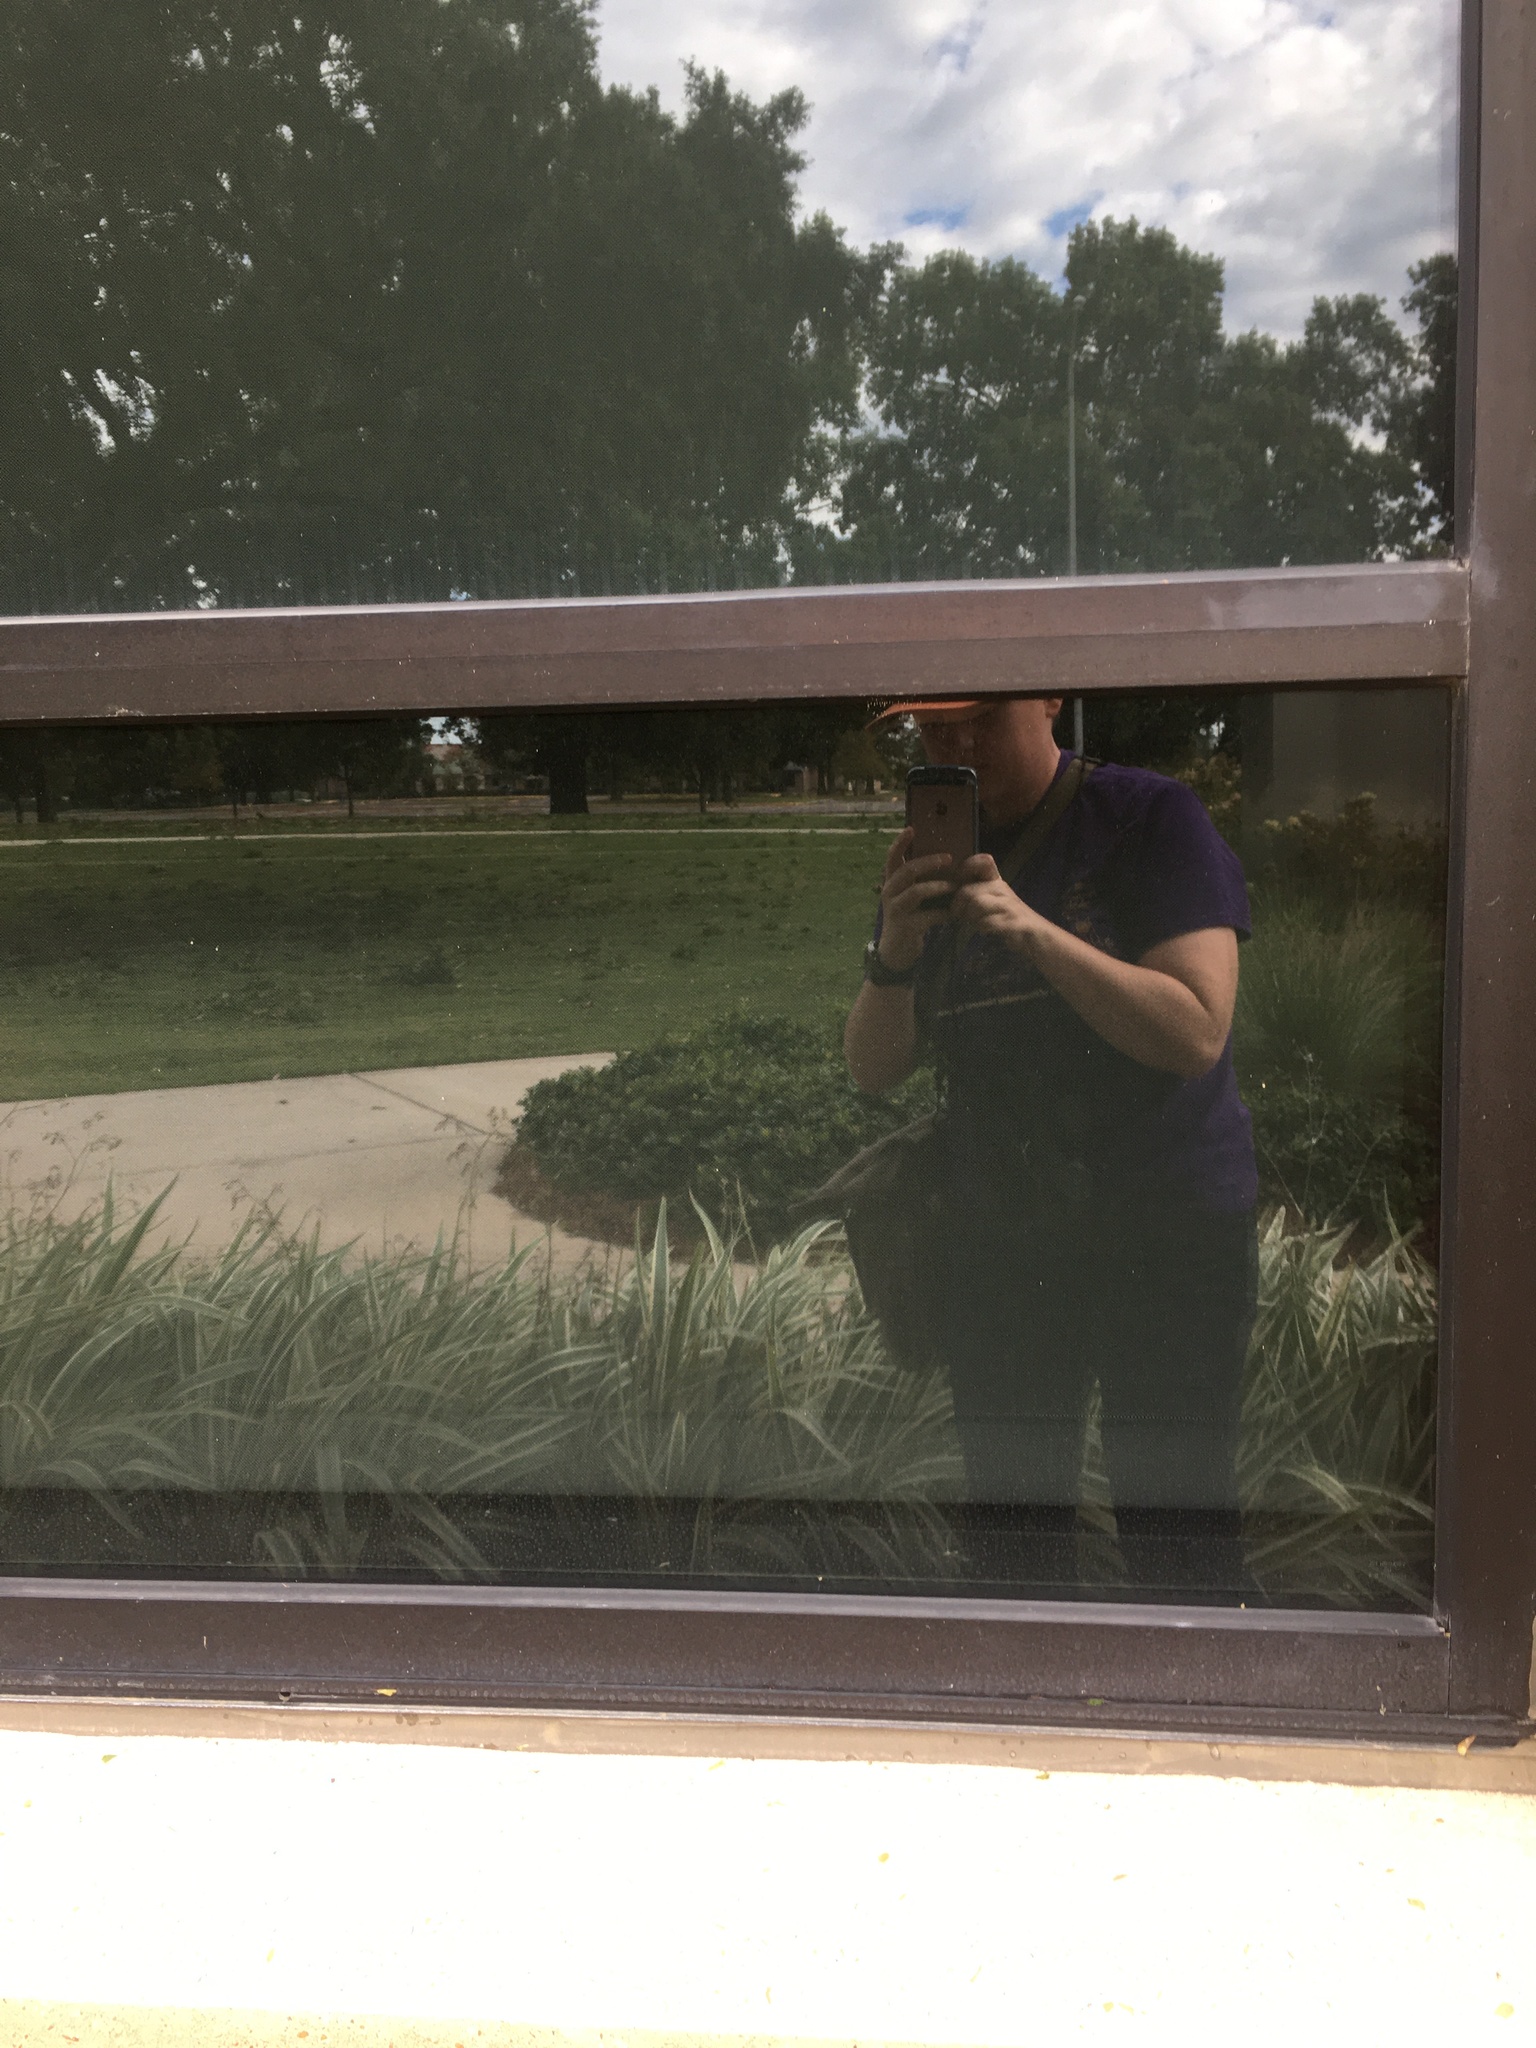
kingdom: Animalia
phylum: Chordata
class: Aves
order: Piciformes
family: Picidae
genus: Sphyrapicus
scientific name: Sphyrapicus varius
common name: Yellow-bellied sapsucker
